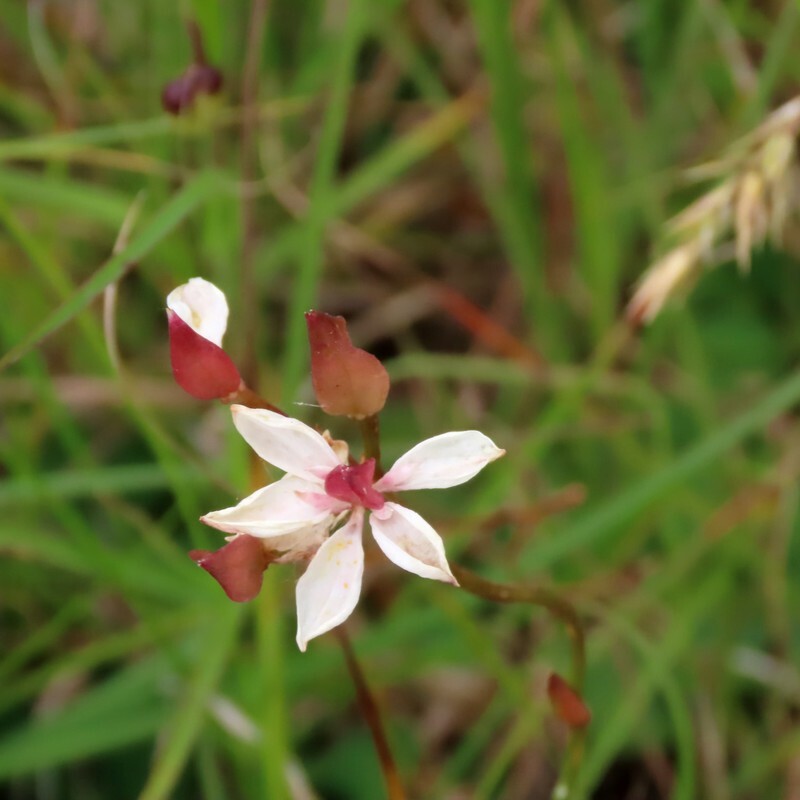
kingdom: Plantae
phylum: Tracheophyta
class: Liliopsida
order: Liliales
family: Colchicaceae
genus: Burchardia
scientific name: Burchardia umbellata
